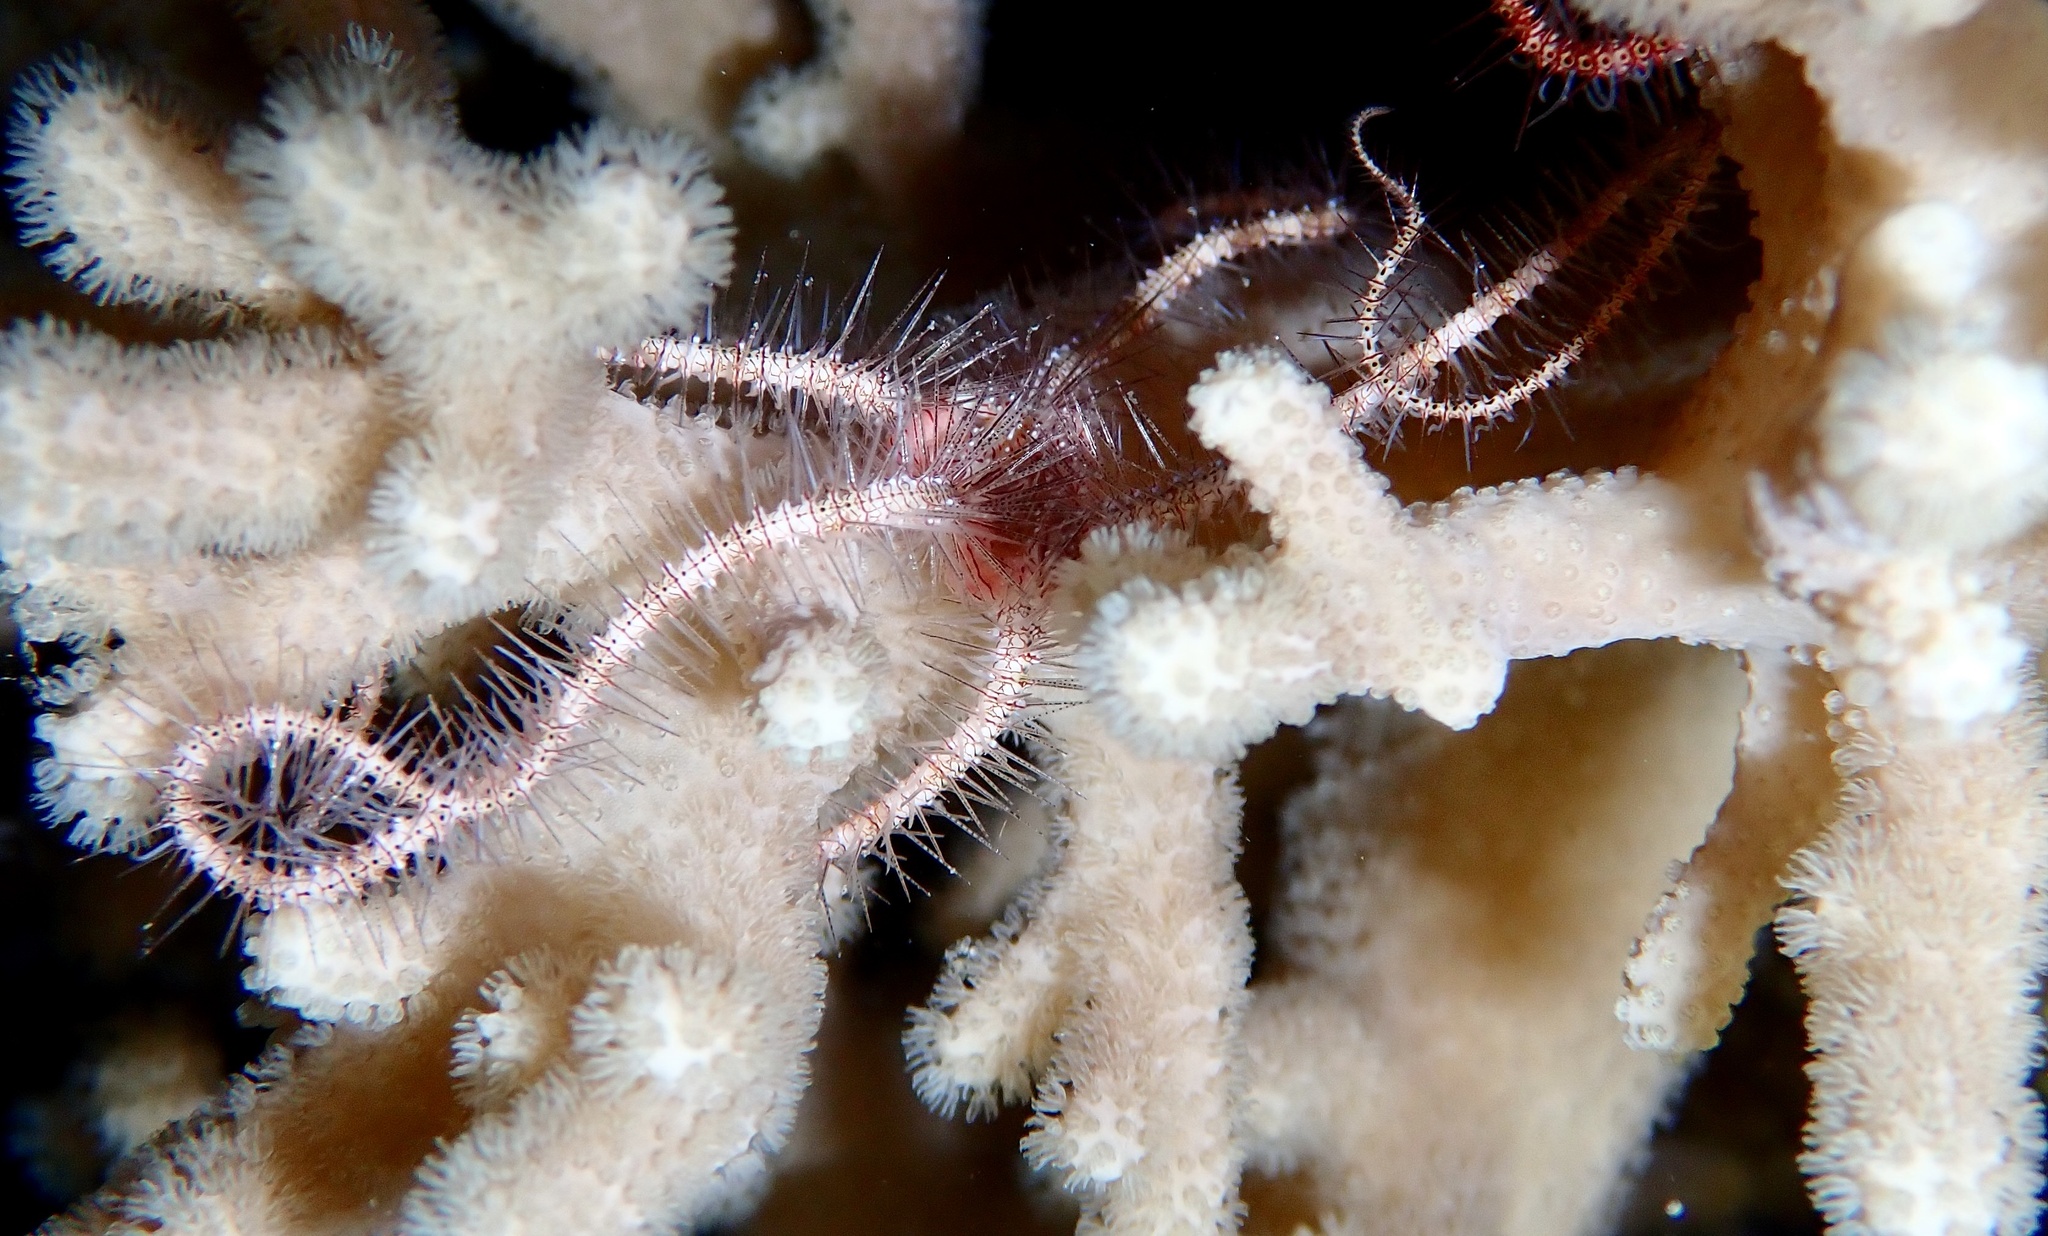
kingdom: Animalia
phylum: Echinodermata
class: Ophiuroidea
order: Amphilepidida
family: Ophiotrichidae
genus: Ophiothrix
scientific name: Ophiothrix purpurea
